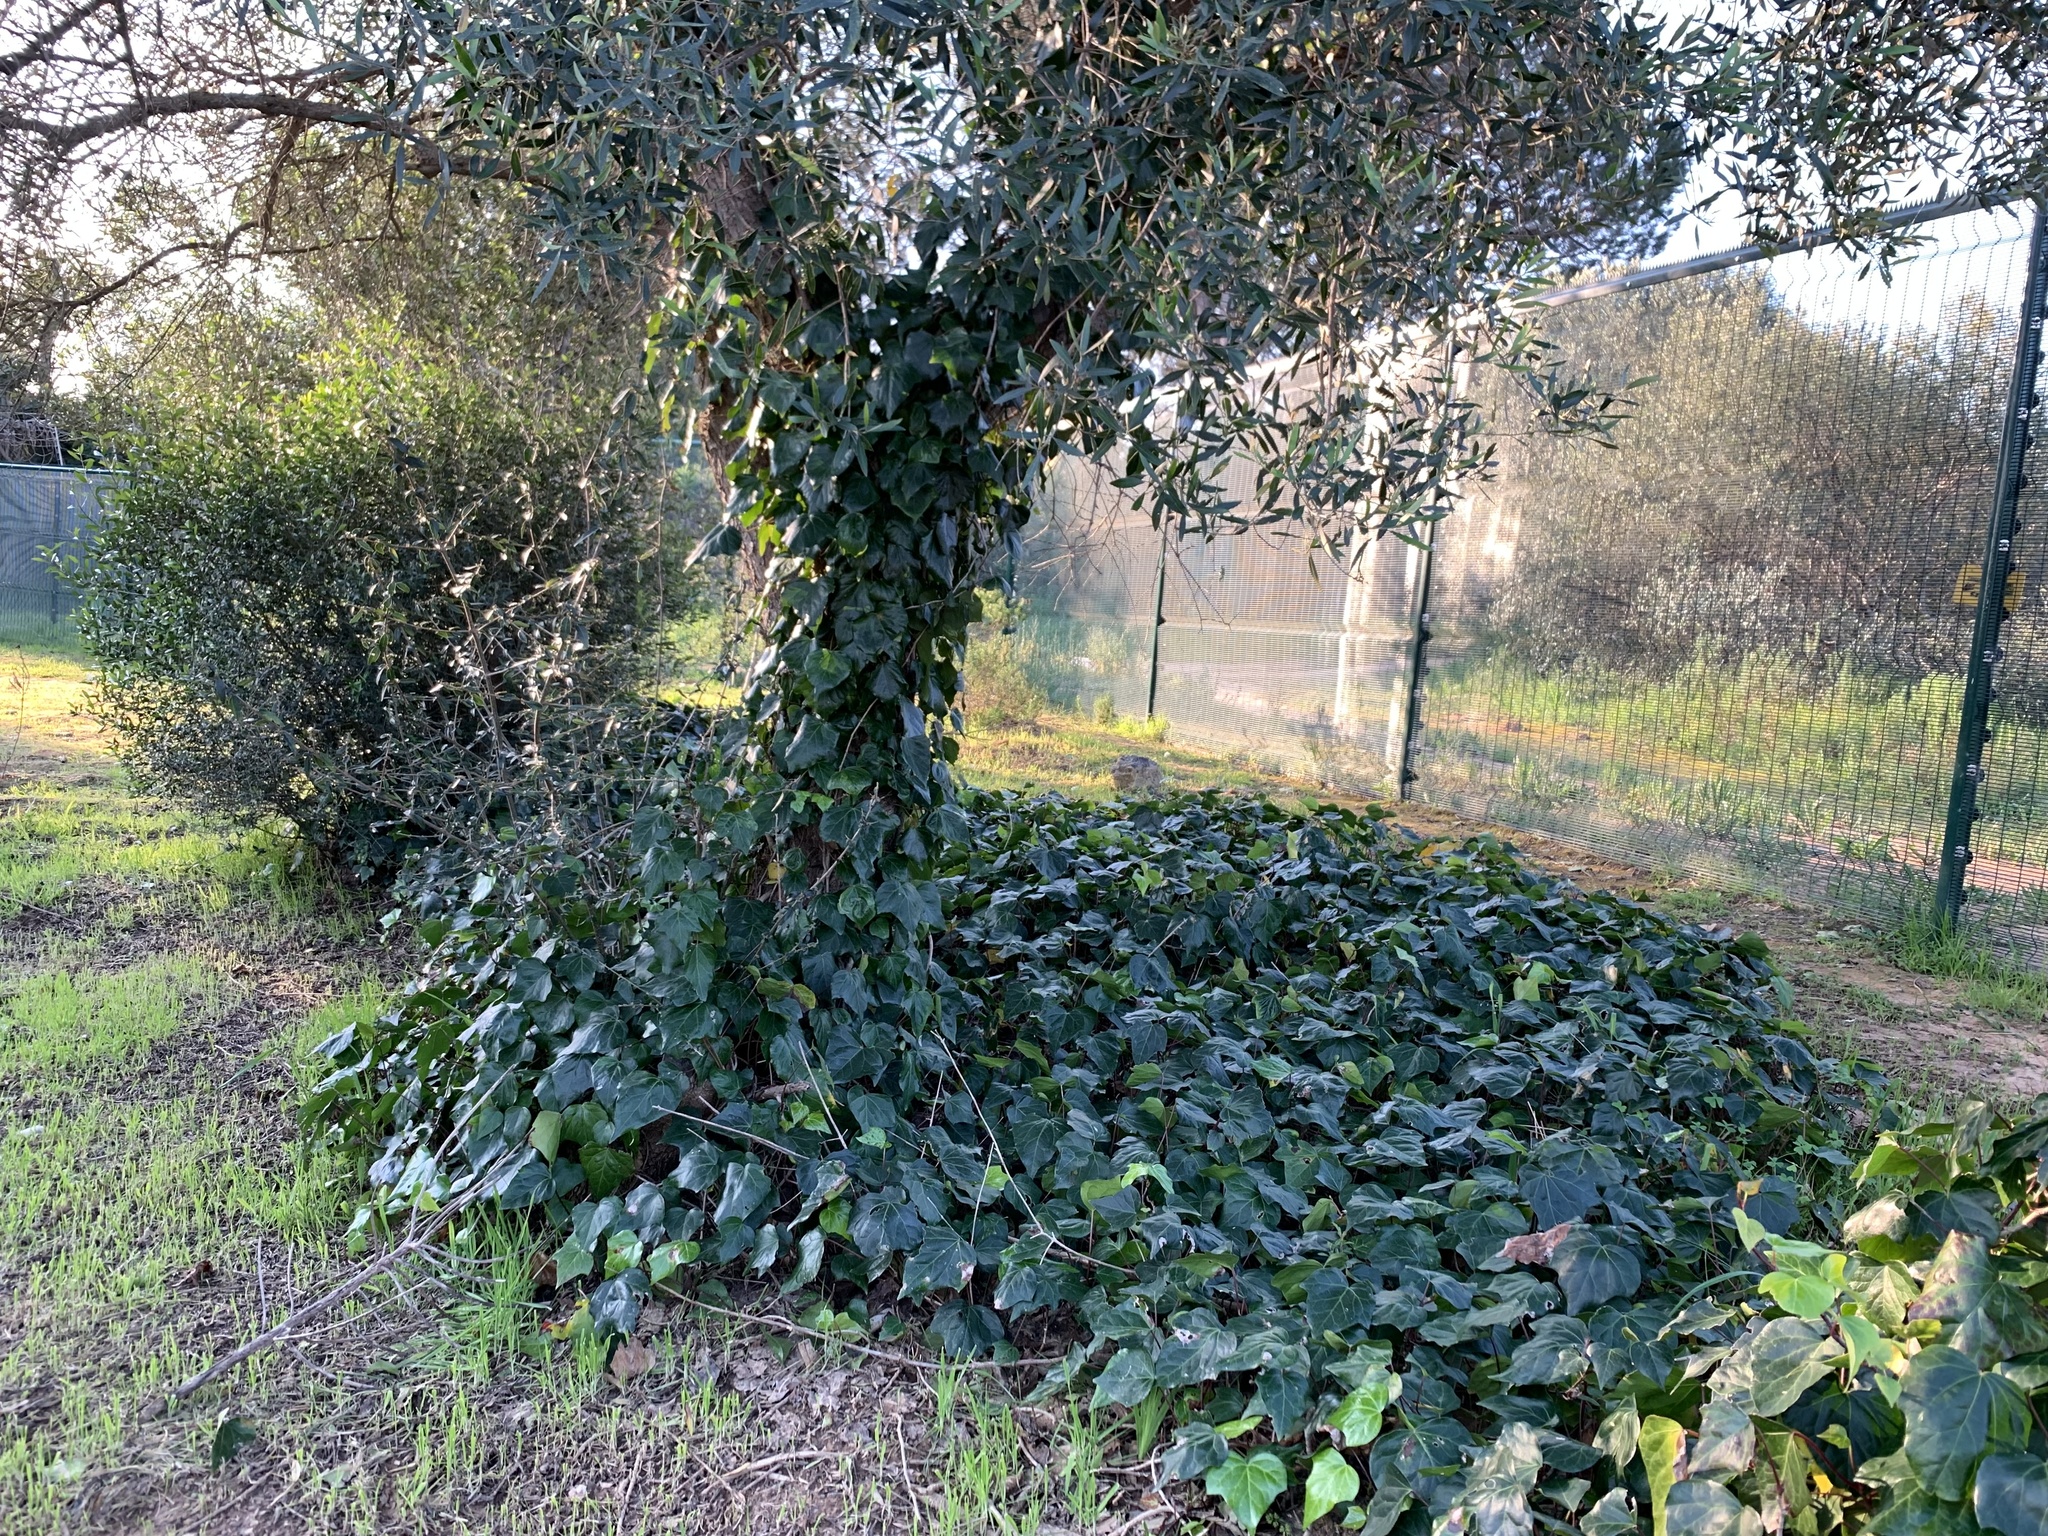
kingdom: Plantae
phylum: Tracheophyta
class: Magnoliopsida
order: Apiales
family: Araliaceae
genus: Hedera
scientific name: Hedera canariensis
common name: Madeira ivy
